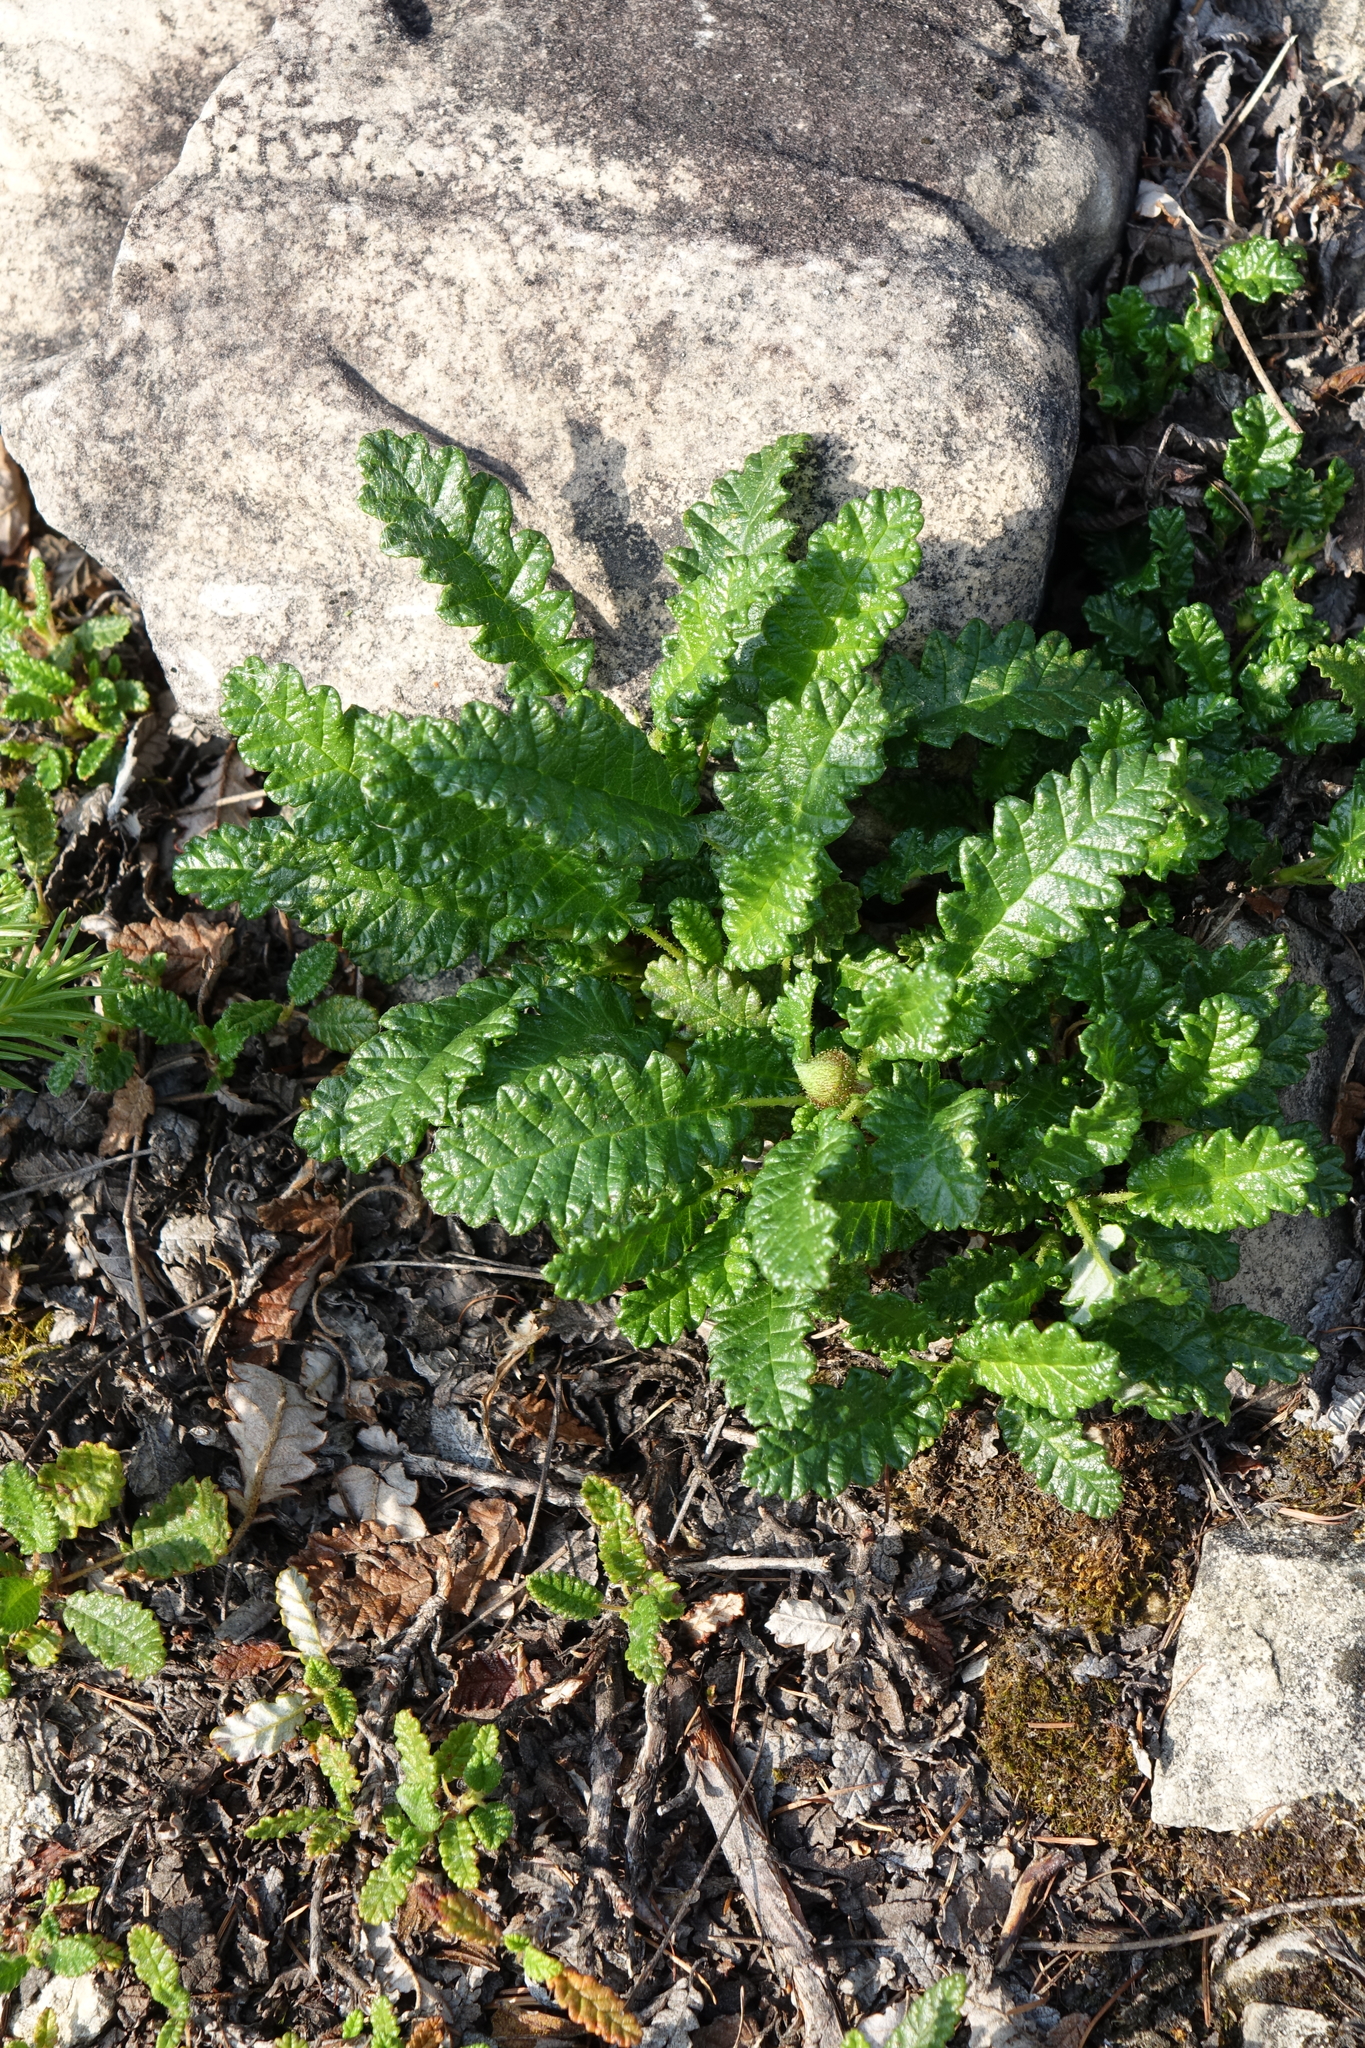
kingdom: Plantae
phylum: Tracheophyta
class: Magnoliopsida
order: Rosales
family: Rosaceae
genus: Dryas
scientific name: Dryas octopetala
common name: Eight-petal mountain-avens
